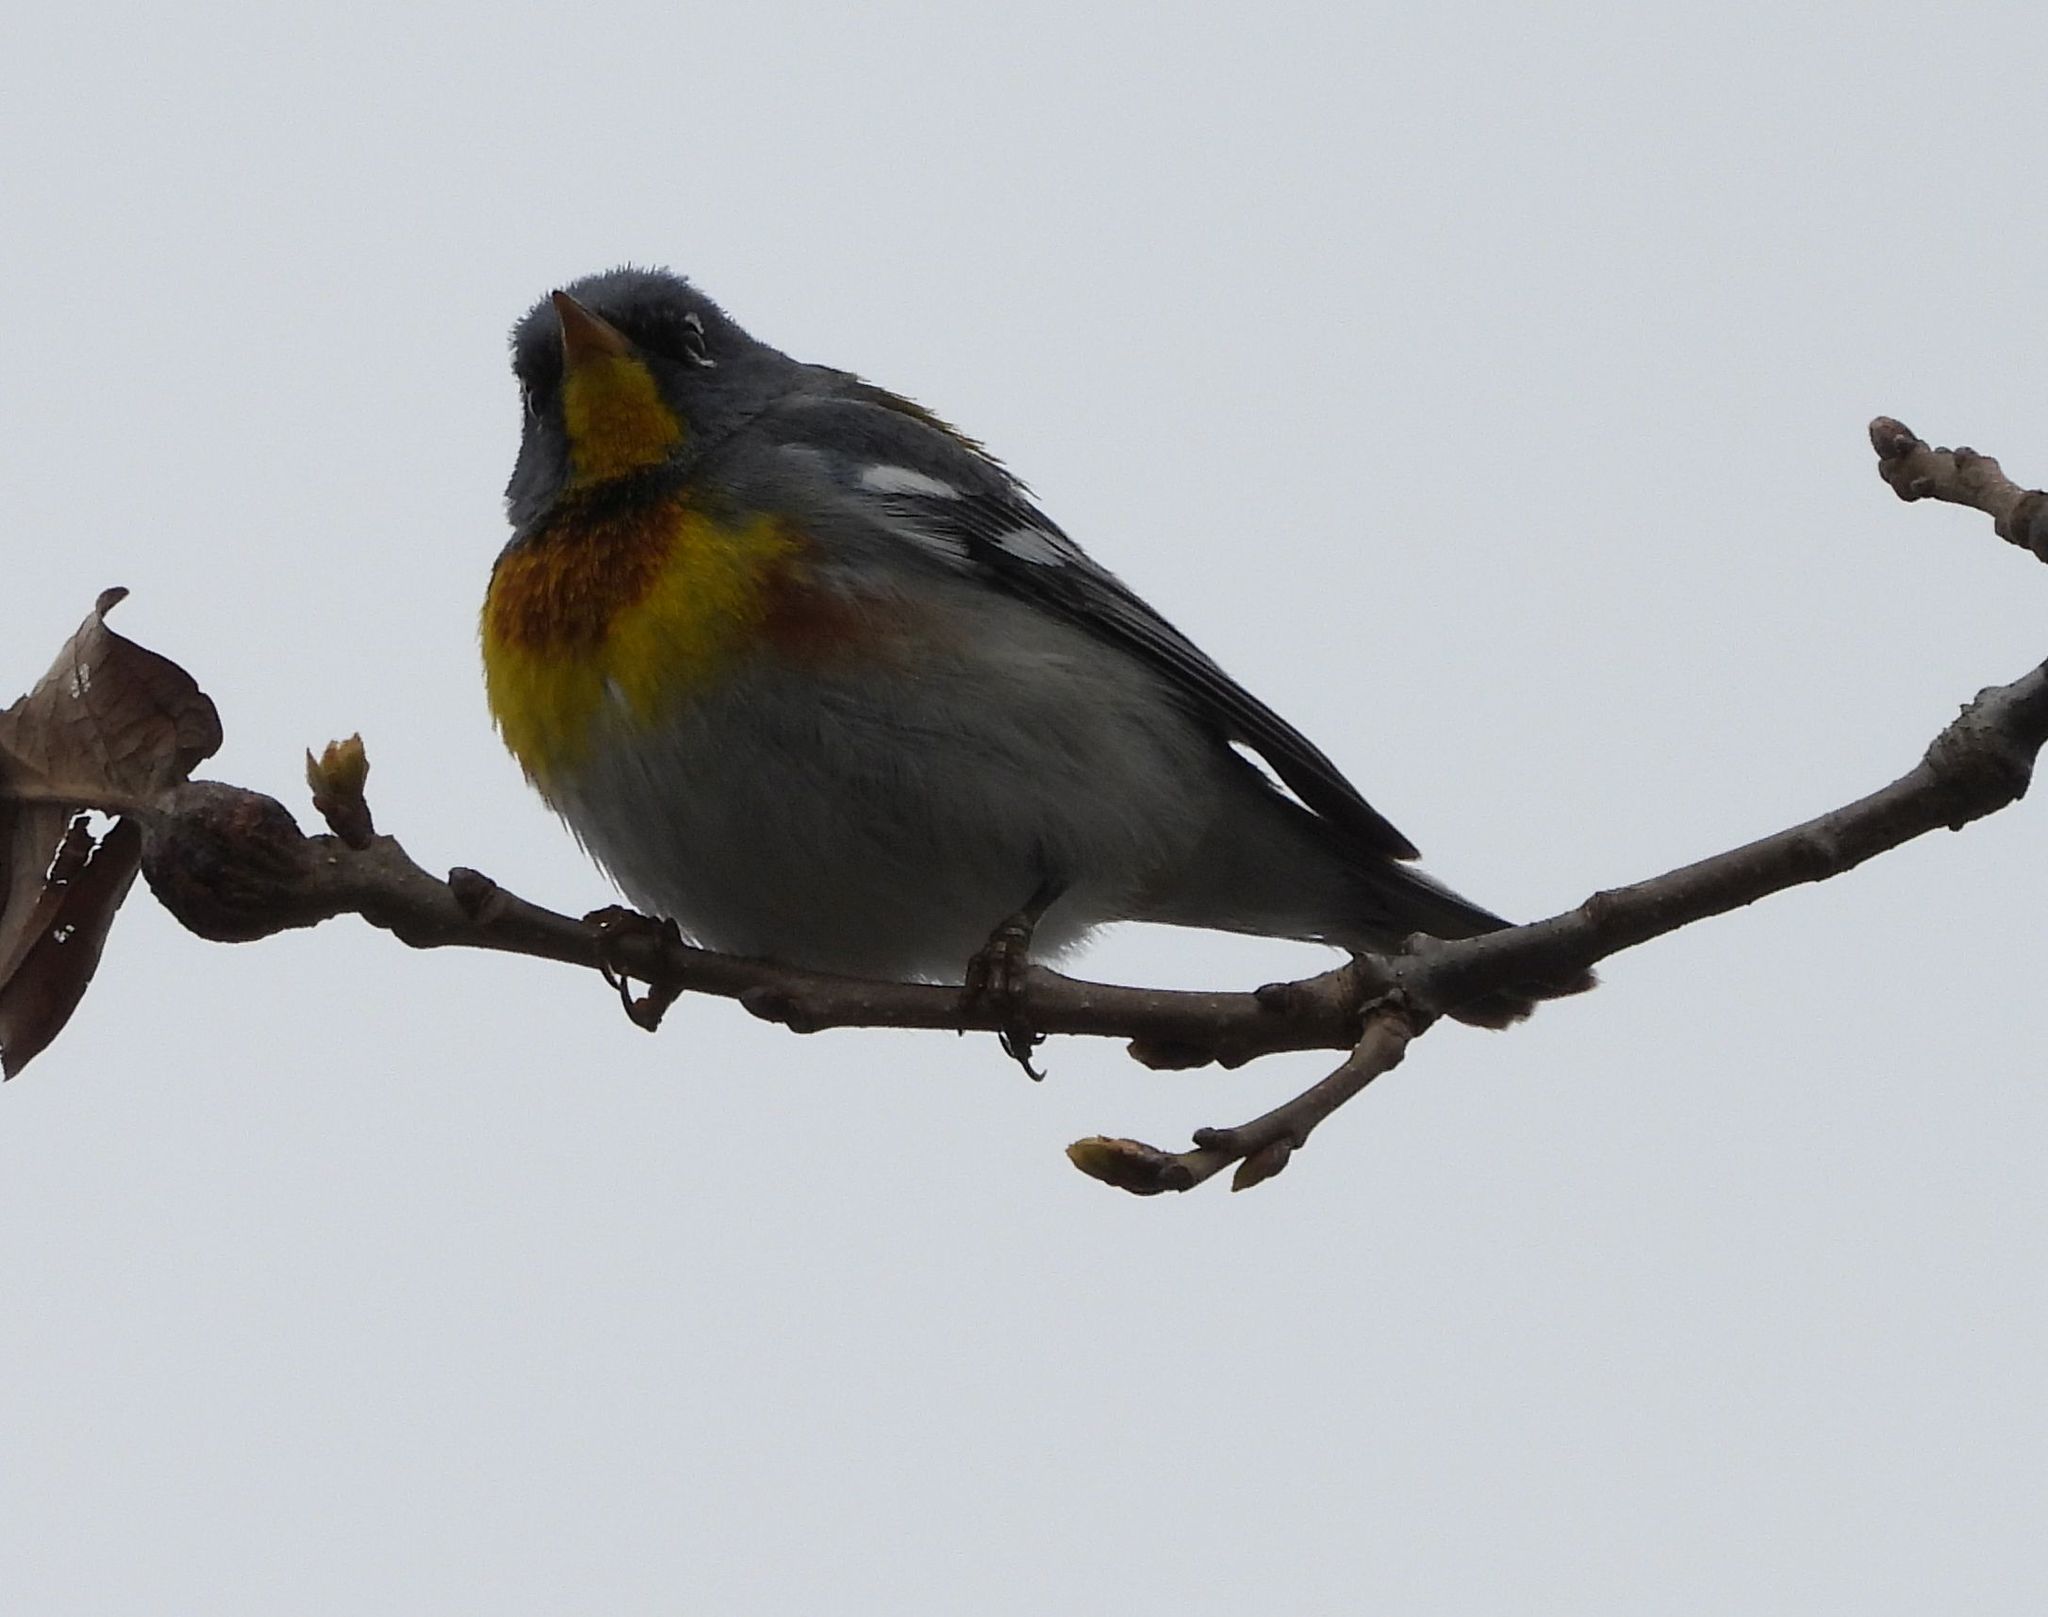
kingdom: Animalia
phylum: Chordata
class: Aves
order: Passeriformes
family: Parulidae
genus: Setophaga
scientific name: Setophaga americana
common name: Northern parula
